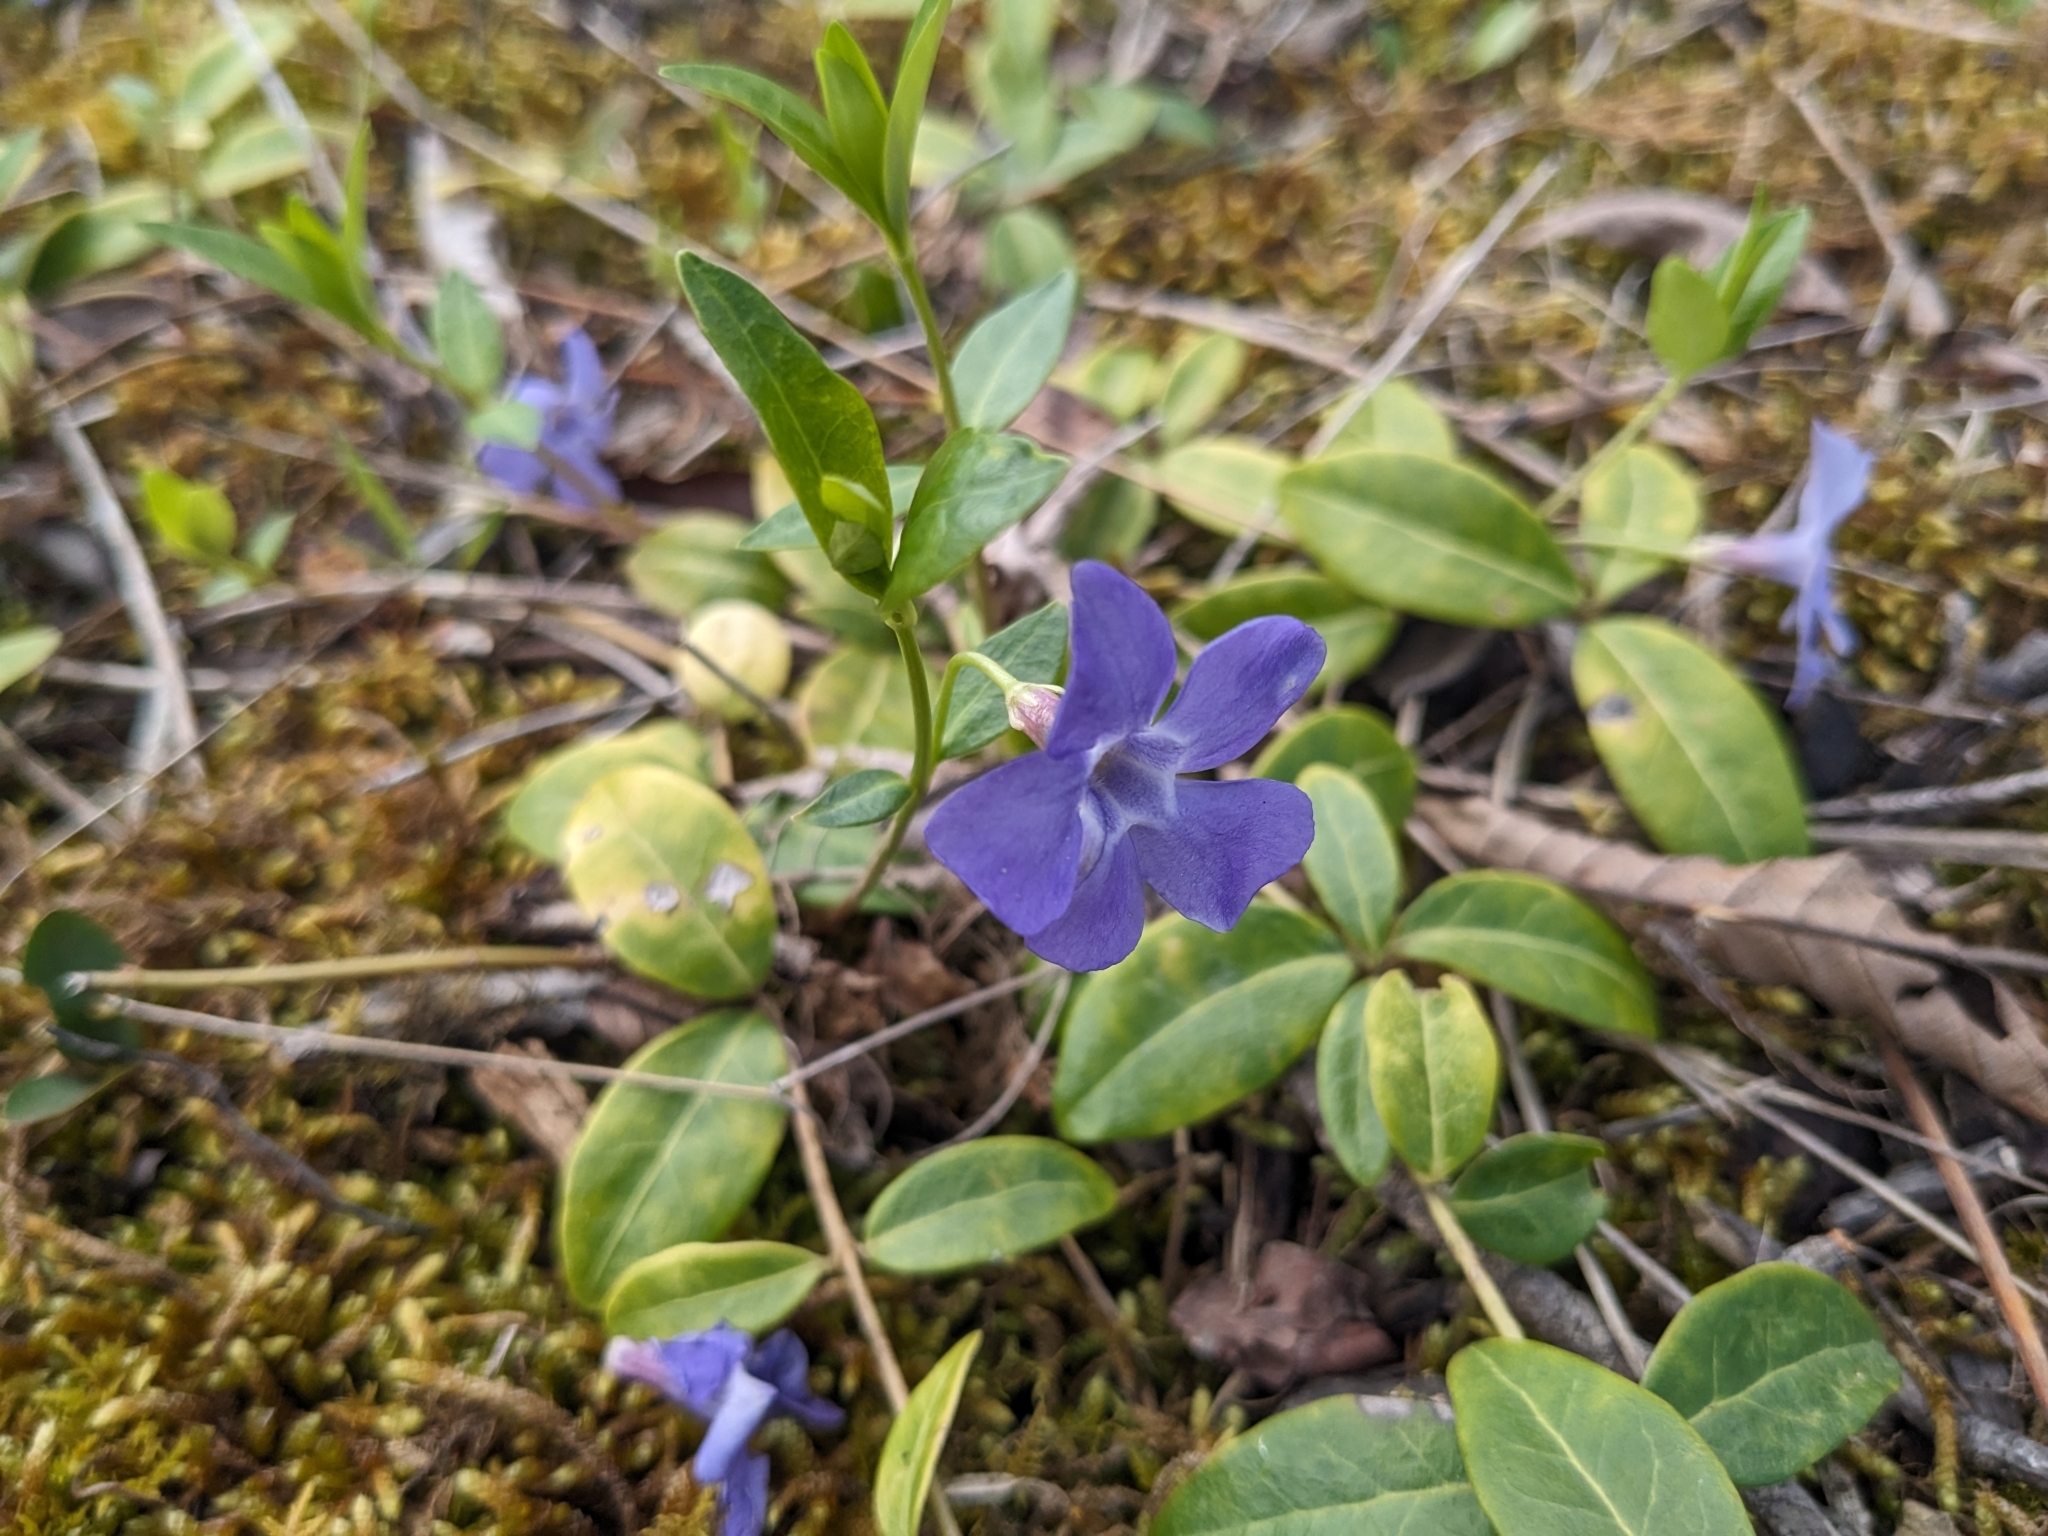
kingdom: Plantae
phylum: Tracheophyta
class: Magnoliopsida
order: Gentianales
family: Apocynaceae
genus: Vinca
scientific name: Vinca minor
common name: Lesser periwinkle
